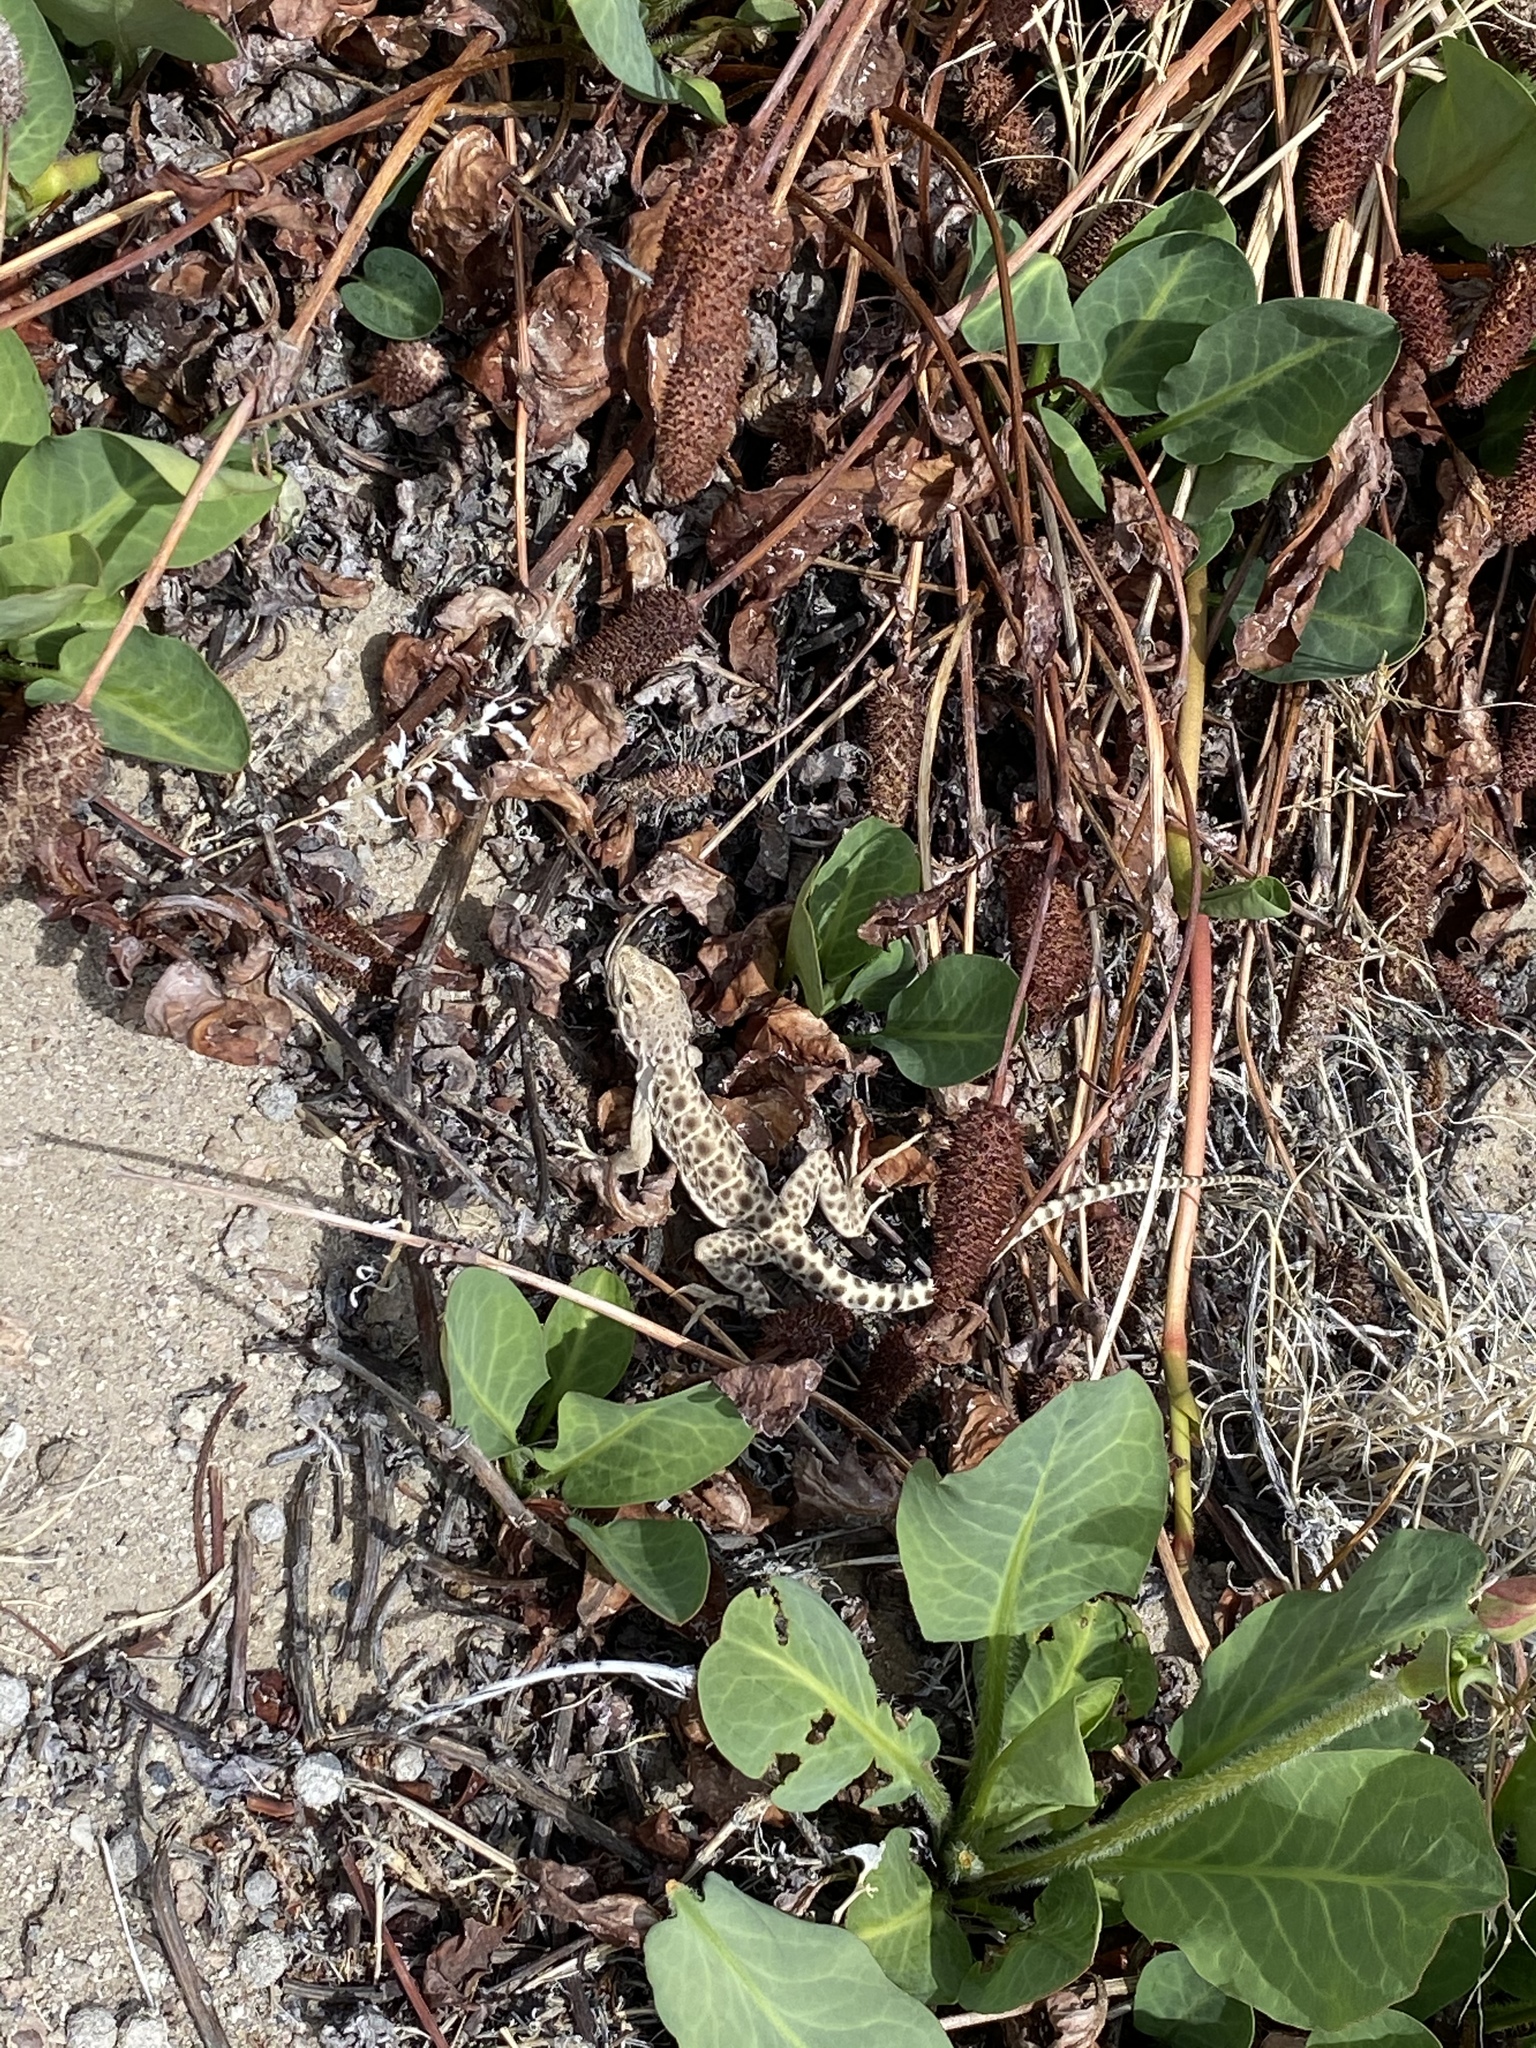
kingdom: Animalia
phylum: Chordata
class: Squamata
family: Crotaphytidae
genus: Gambelia
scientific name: Gambelia wislizenii
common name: Longnose leopard lizard
